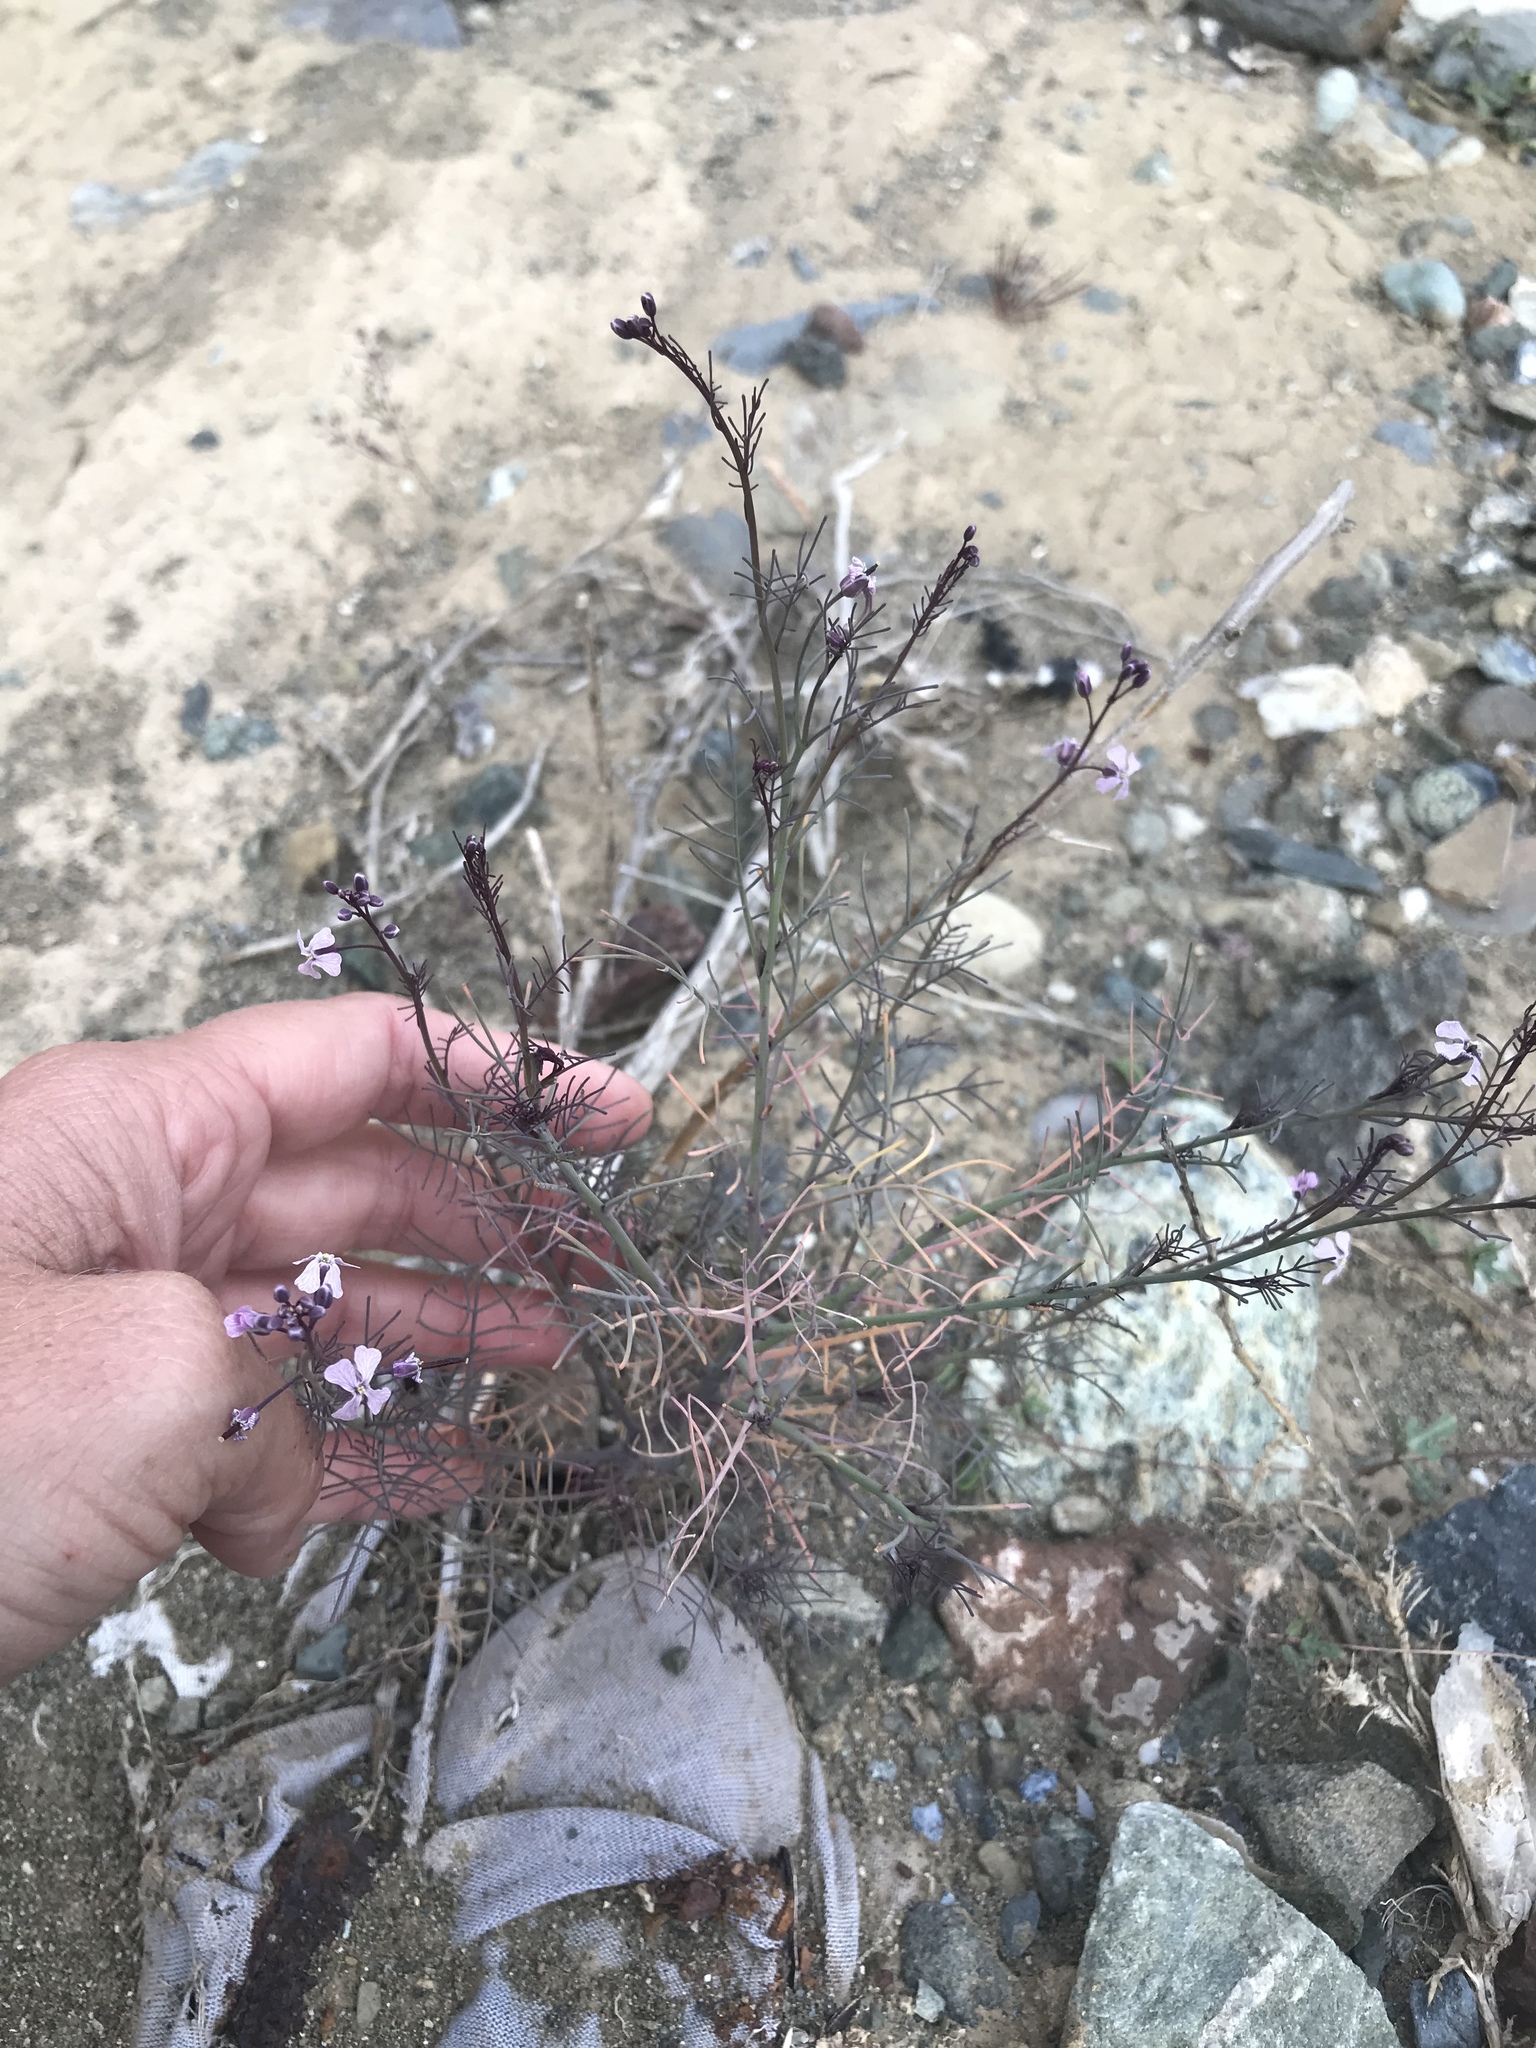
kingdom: Plantae
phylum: Tracheophyta
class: Magnoliopsida
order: Brassicales
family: Brassicaceae
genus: Sibara
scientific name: Sibara angelorum
